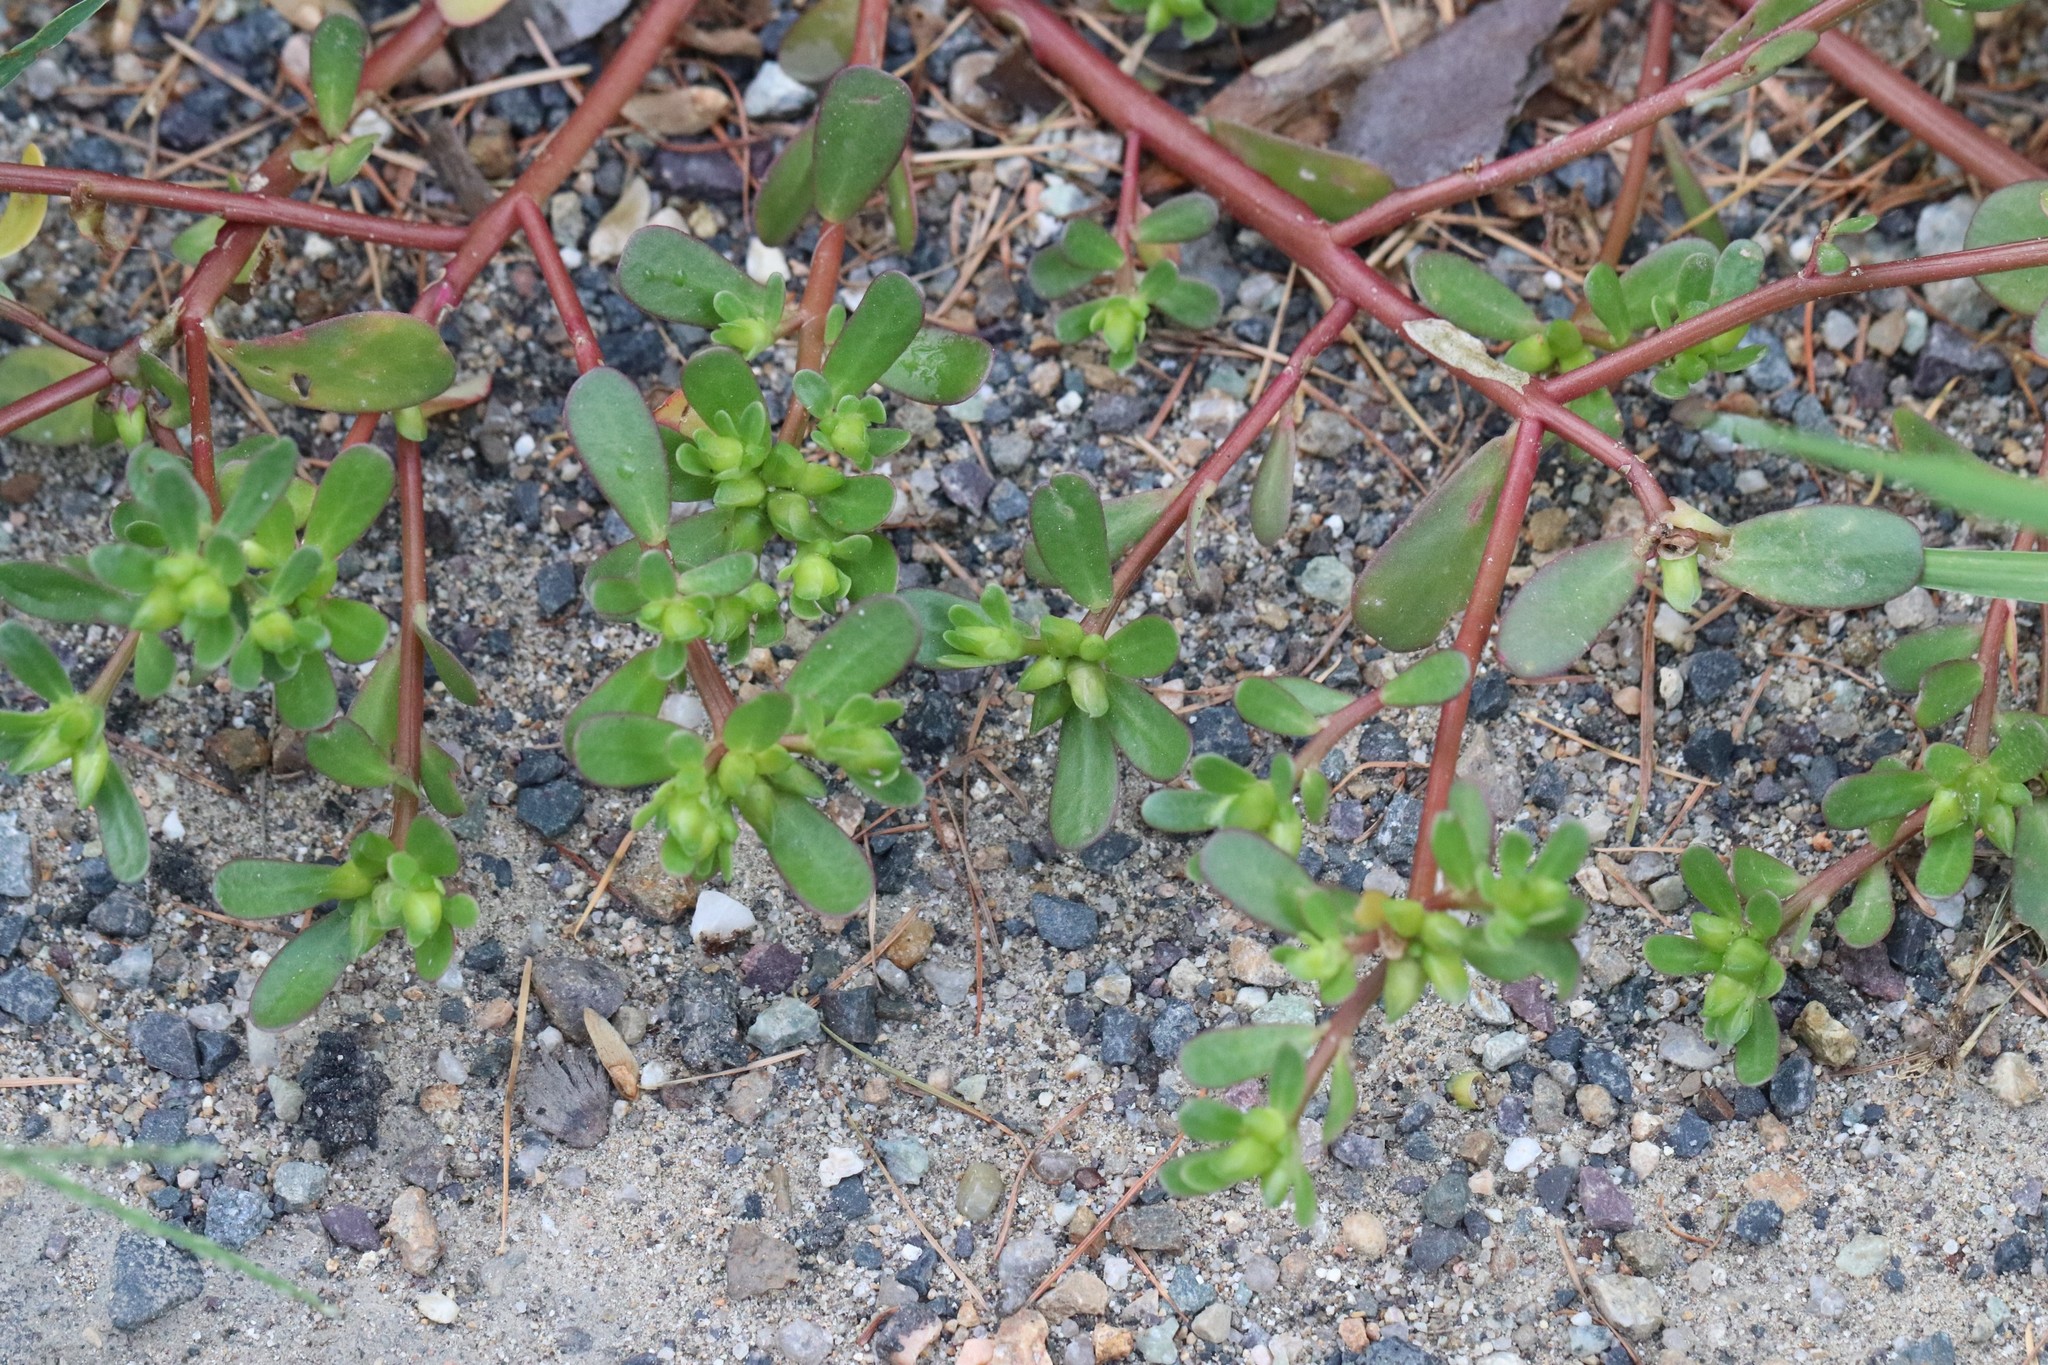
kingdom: Plantae
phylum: Tracheophyta
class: Magnoliopsida
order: Caryophyllales
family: Portulacaceae
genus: Portulaca
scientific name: Portulaca oleracea
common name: Common purslane
